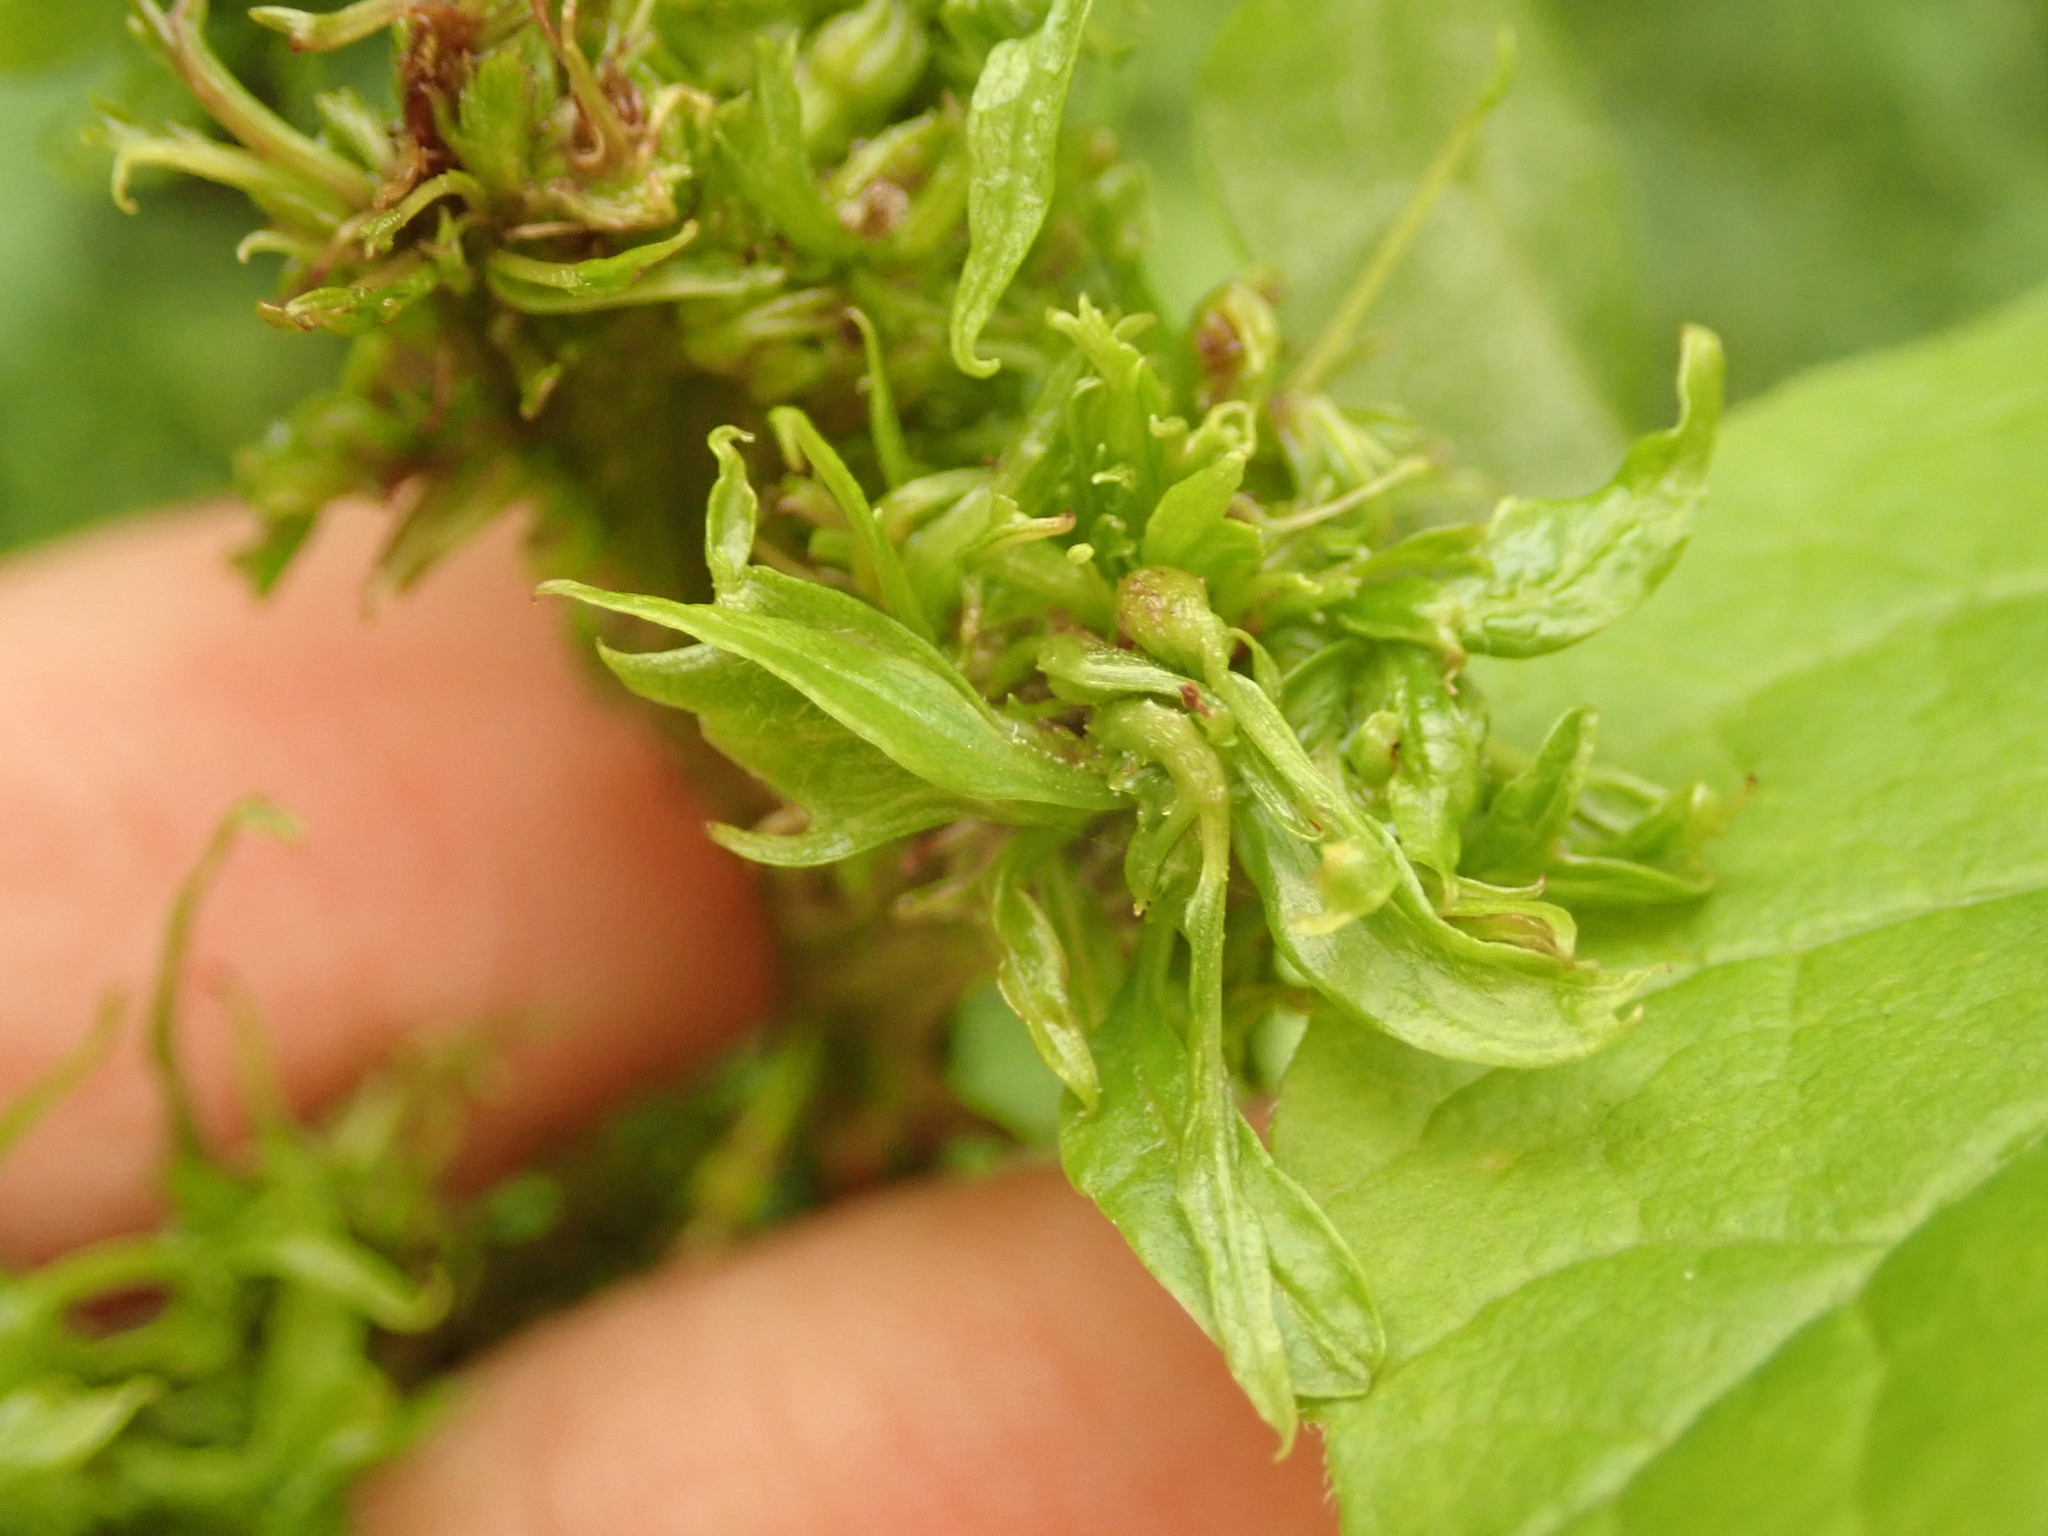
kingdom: Bacteria
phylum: Firmicutes
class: Bacilli
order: Acholeplasmatales
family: Acholeplasmataceae
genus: Phytoplasma
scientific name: Phytoplasma
